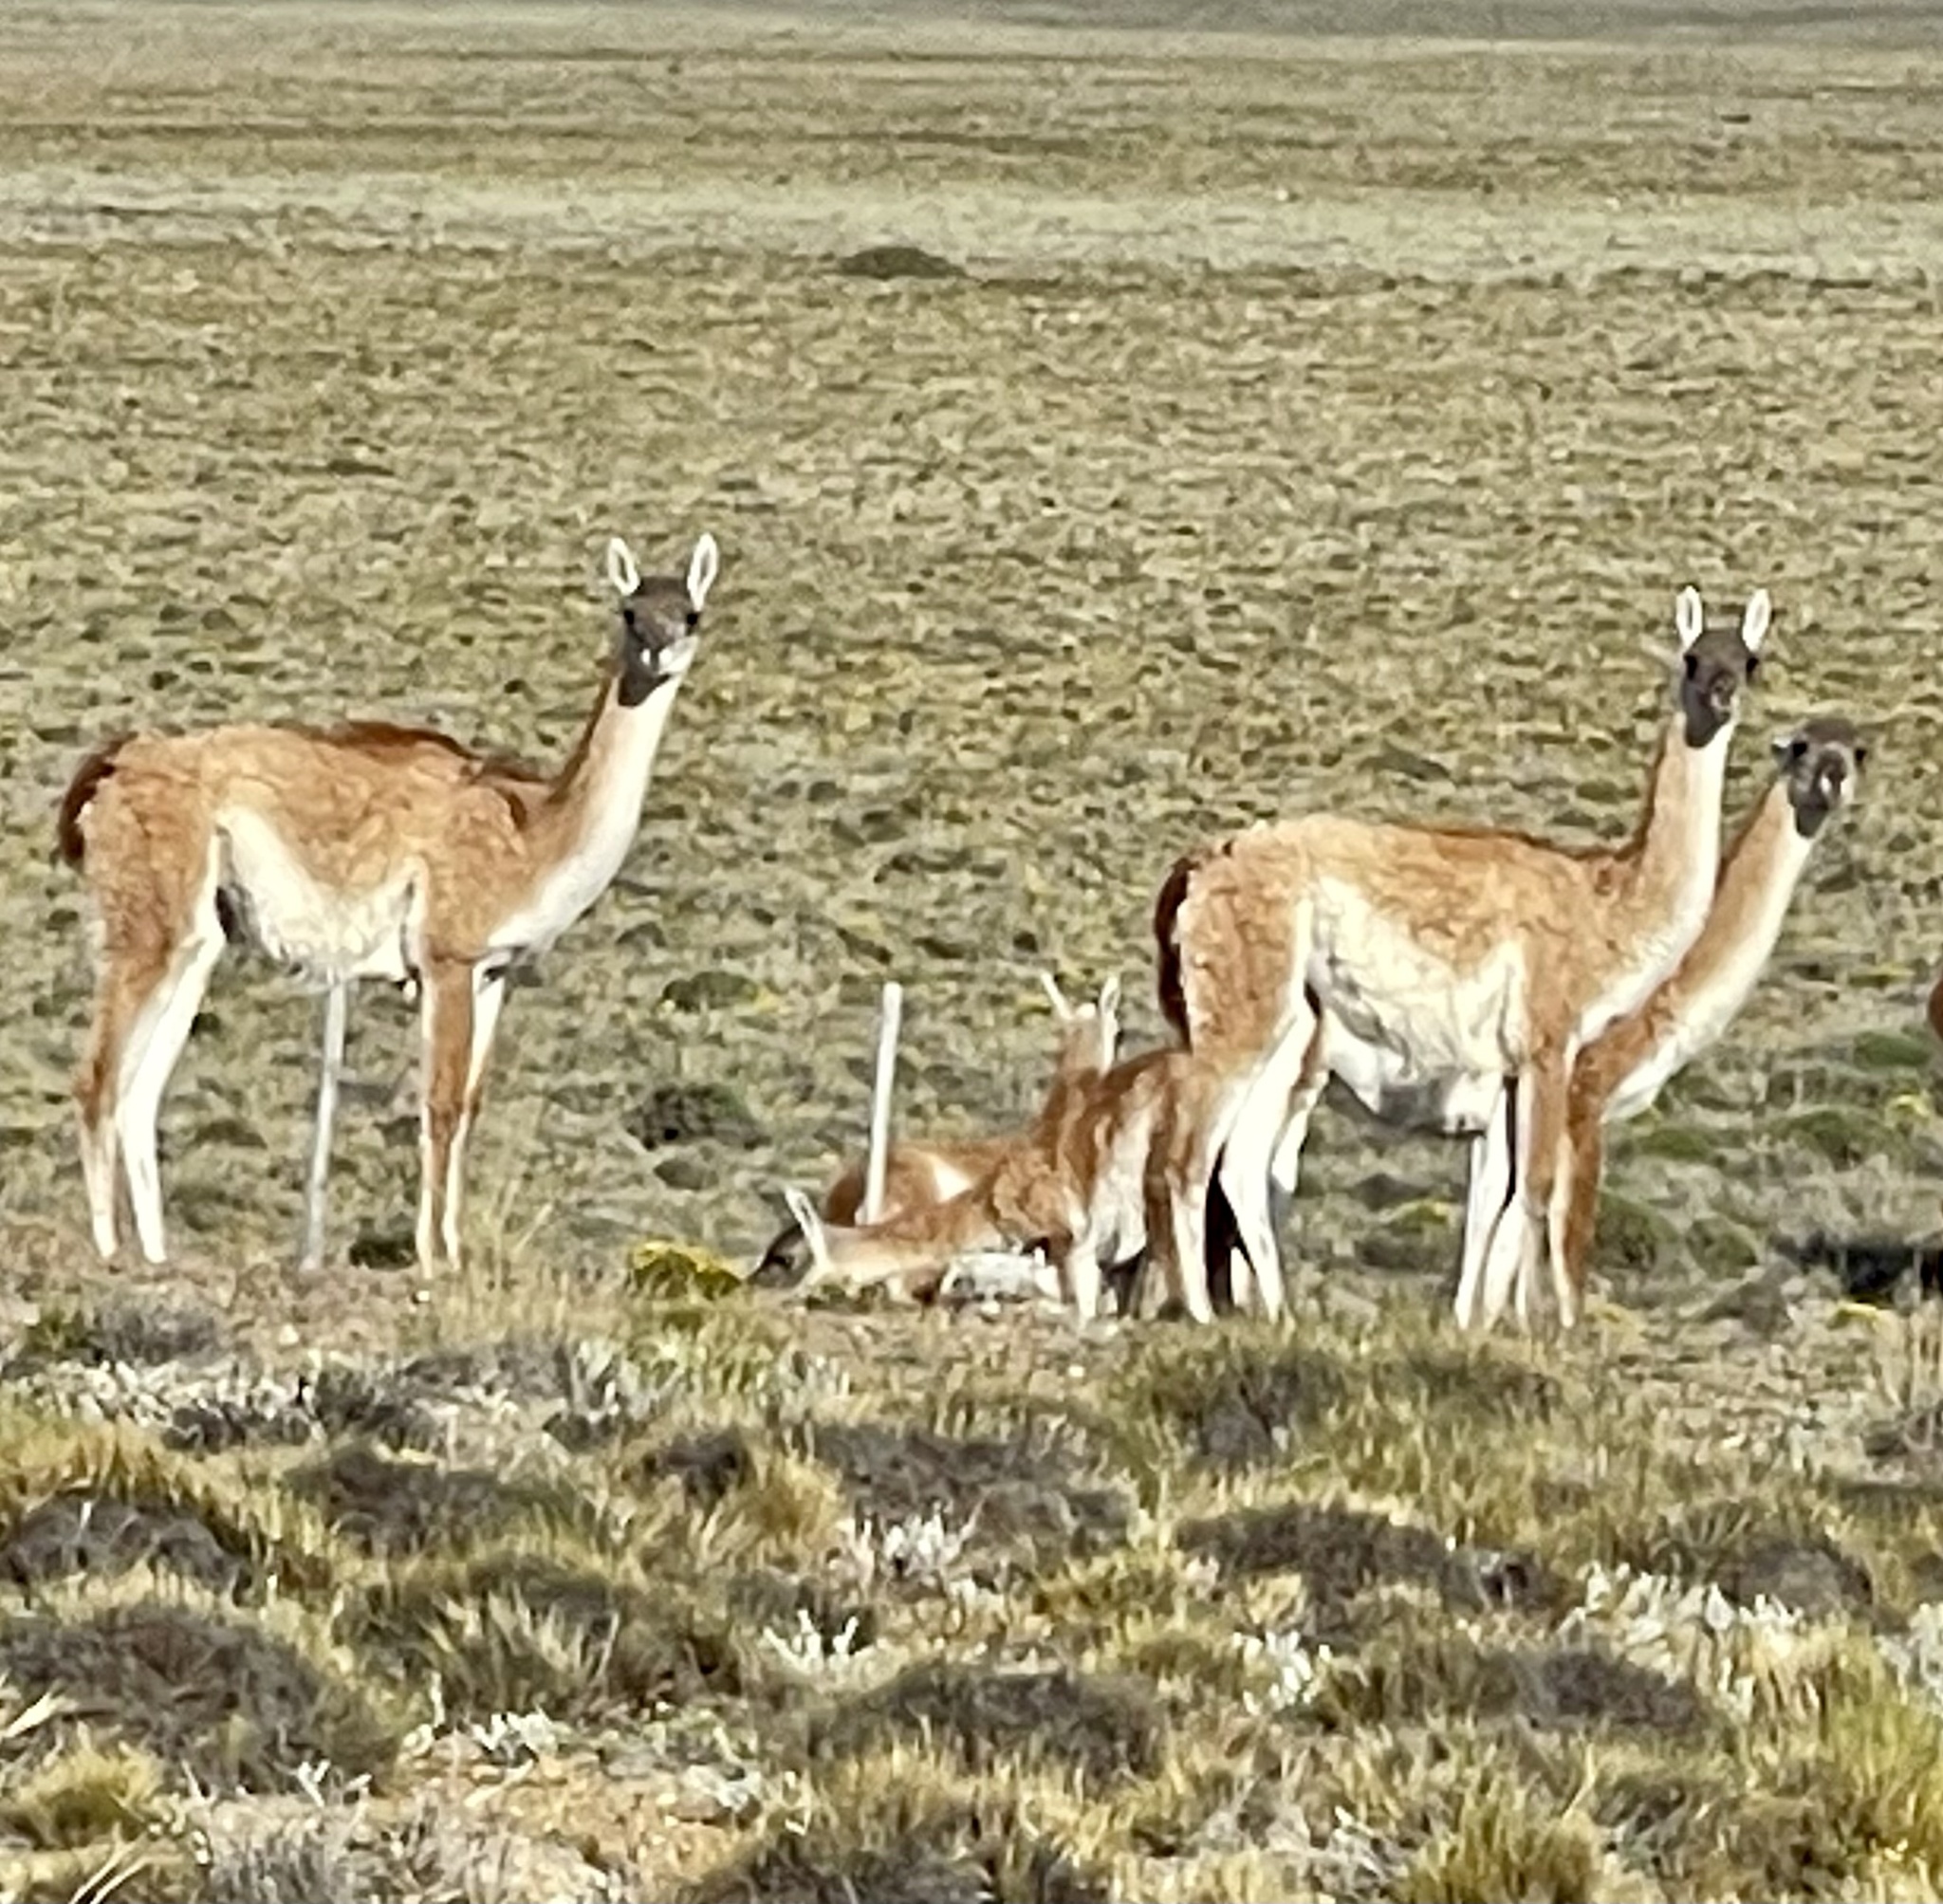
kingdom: Animalia
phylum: Chordata
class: Mammalia
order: Artiodactyla
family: Camelidae
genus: Lama
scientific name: Lama glama
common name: Llama
